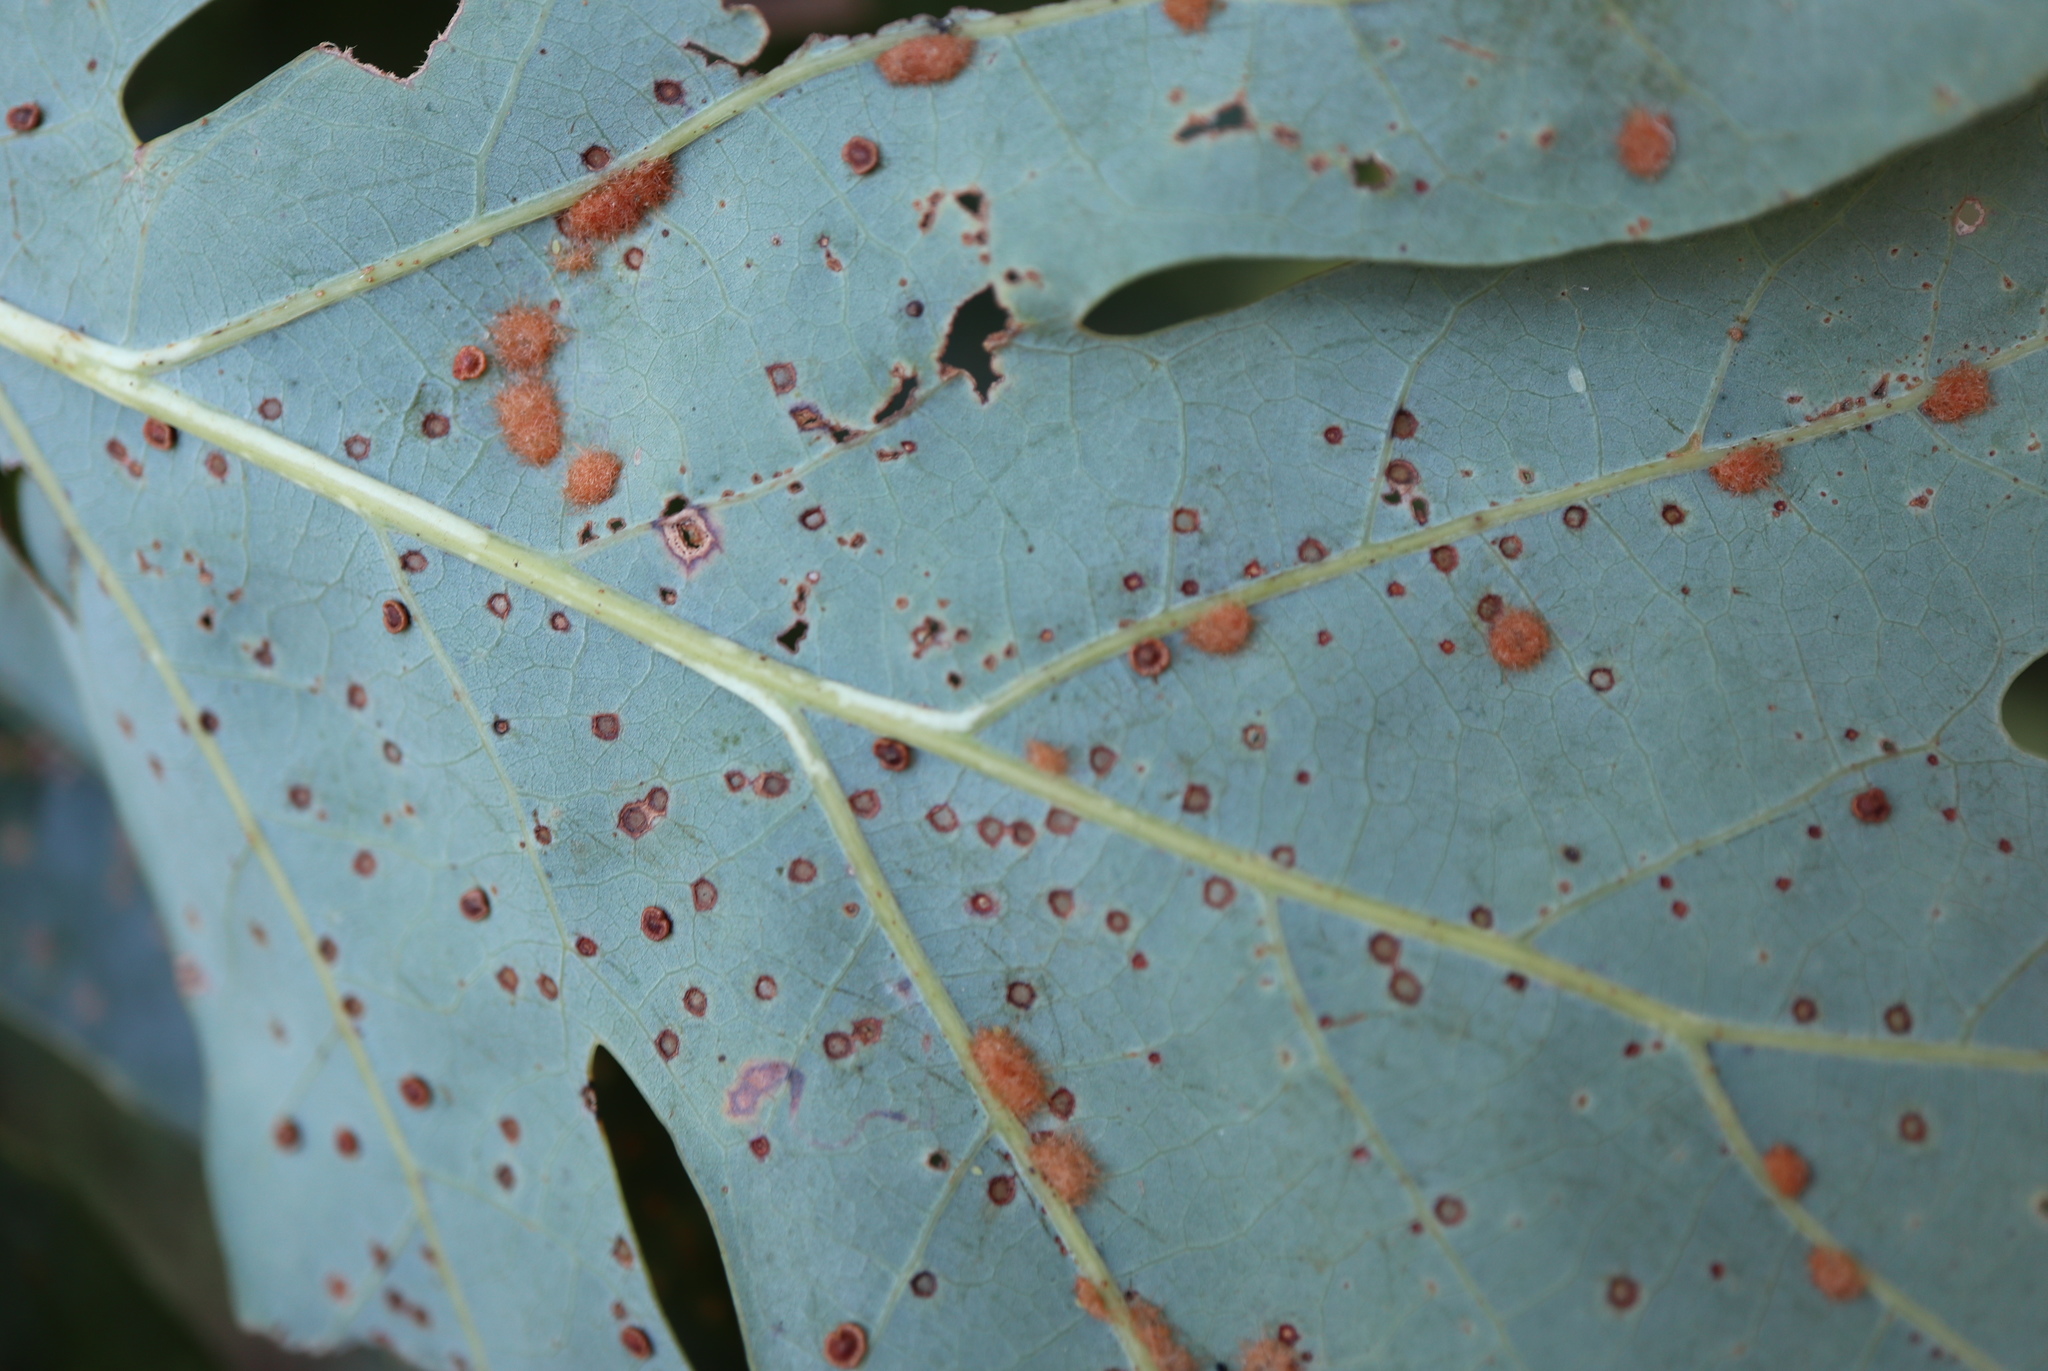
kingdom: Animalia
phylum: Arthropoda
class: Insecta
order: Hymenoptera
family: Cynipidae
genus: Neuroterus
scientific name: Neuroterus quercusverrucarum
